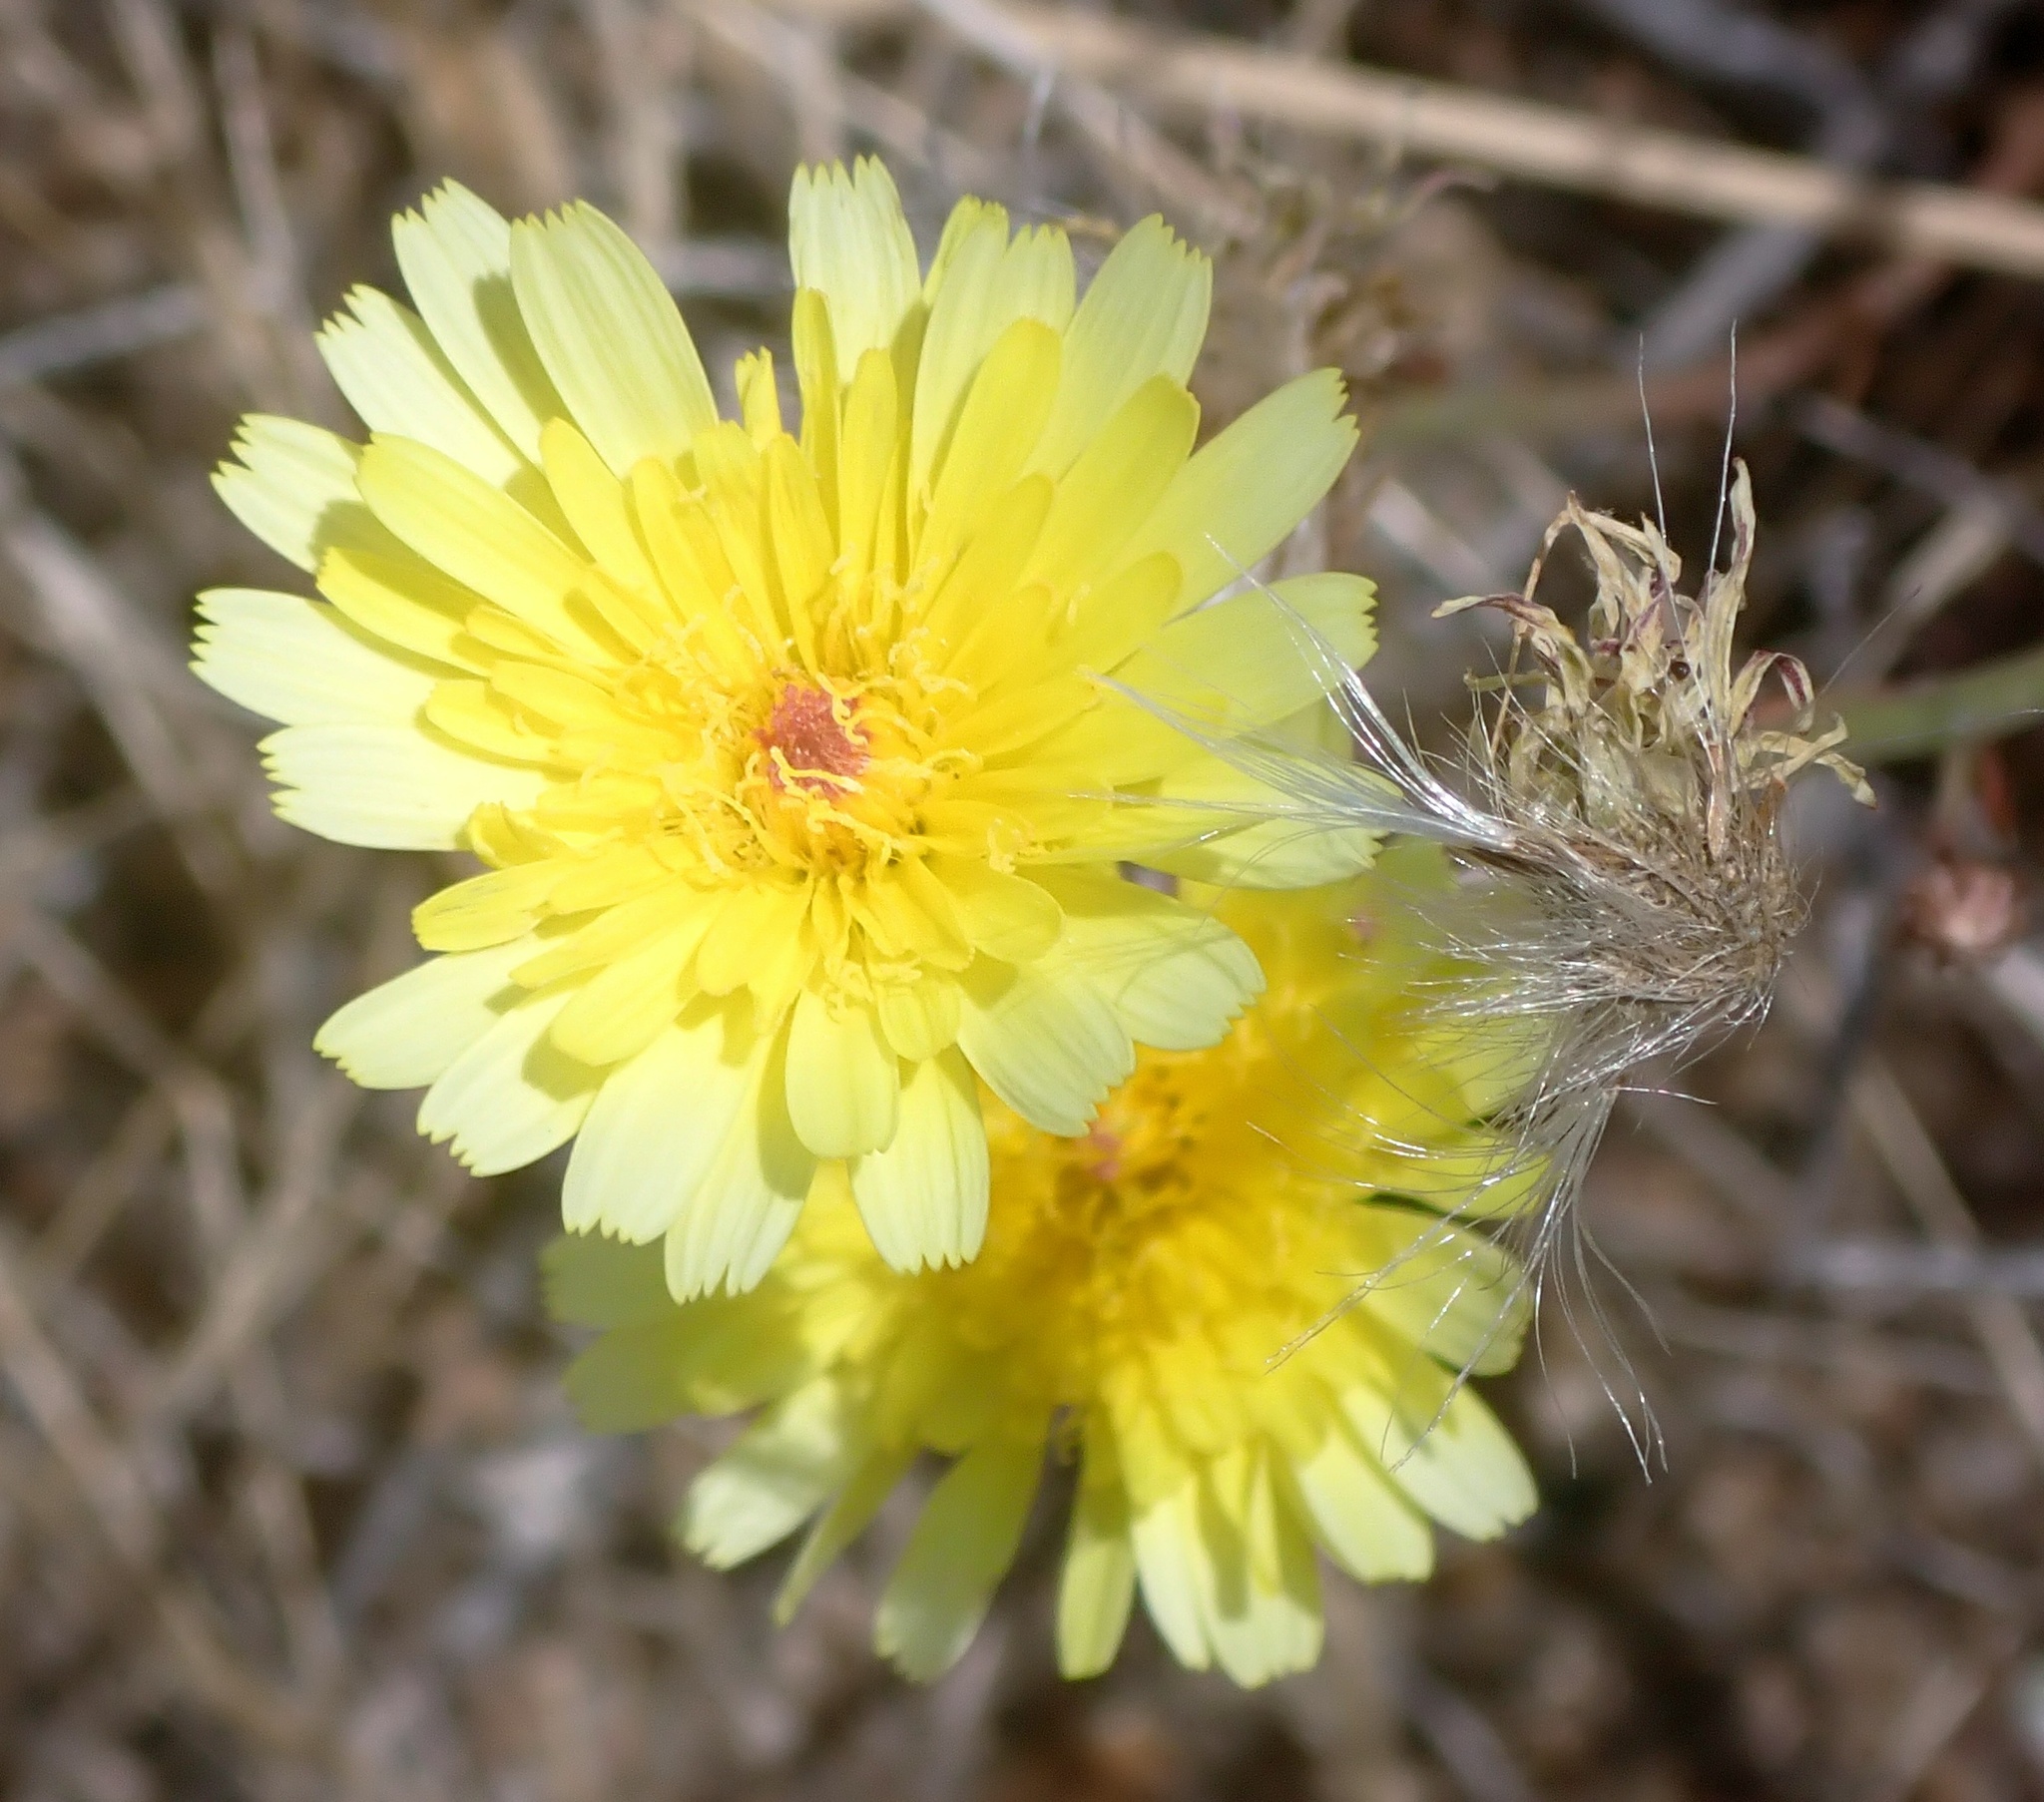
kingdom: Plantae
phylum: Tracheophyta
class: Magnoliopsida
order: Asterales
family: Asteraceae
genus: Malacothrix
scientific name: Malacothrix glabrata
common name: Smooth desert-dandelion
